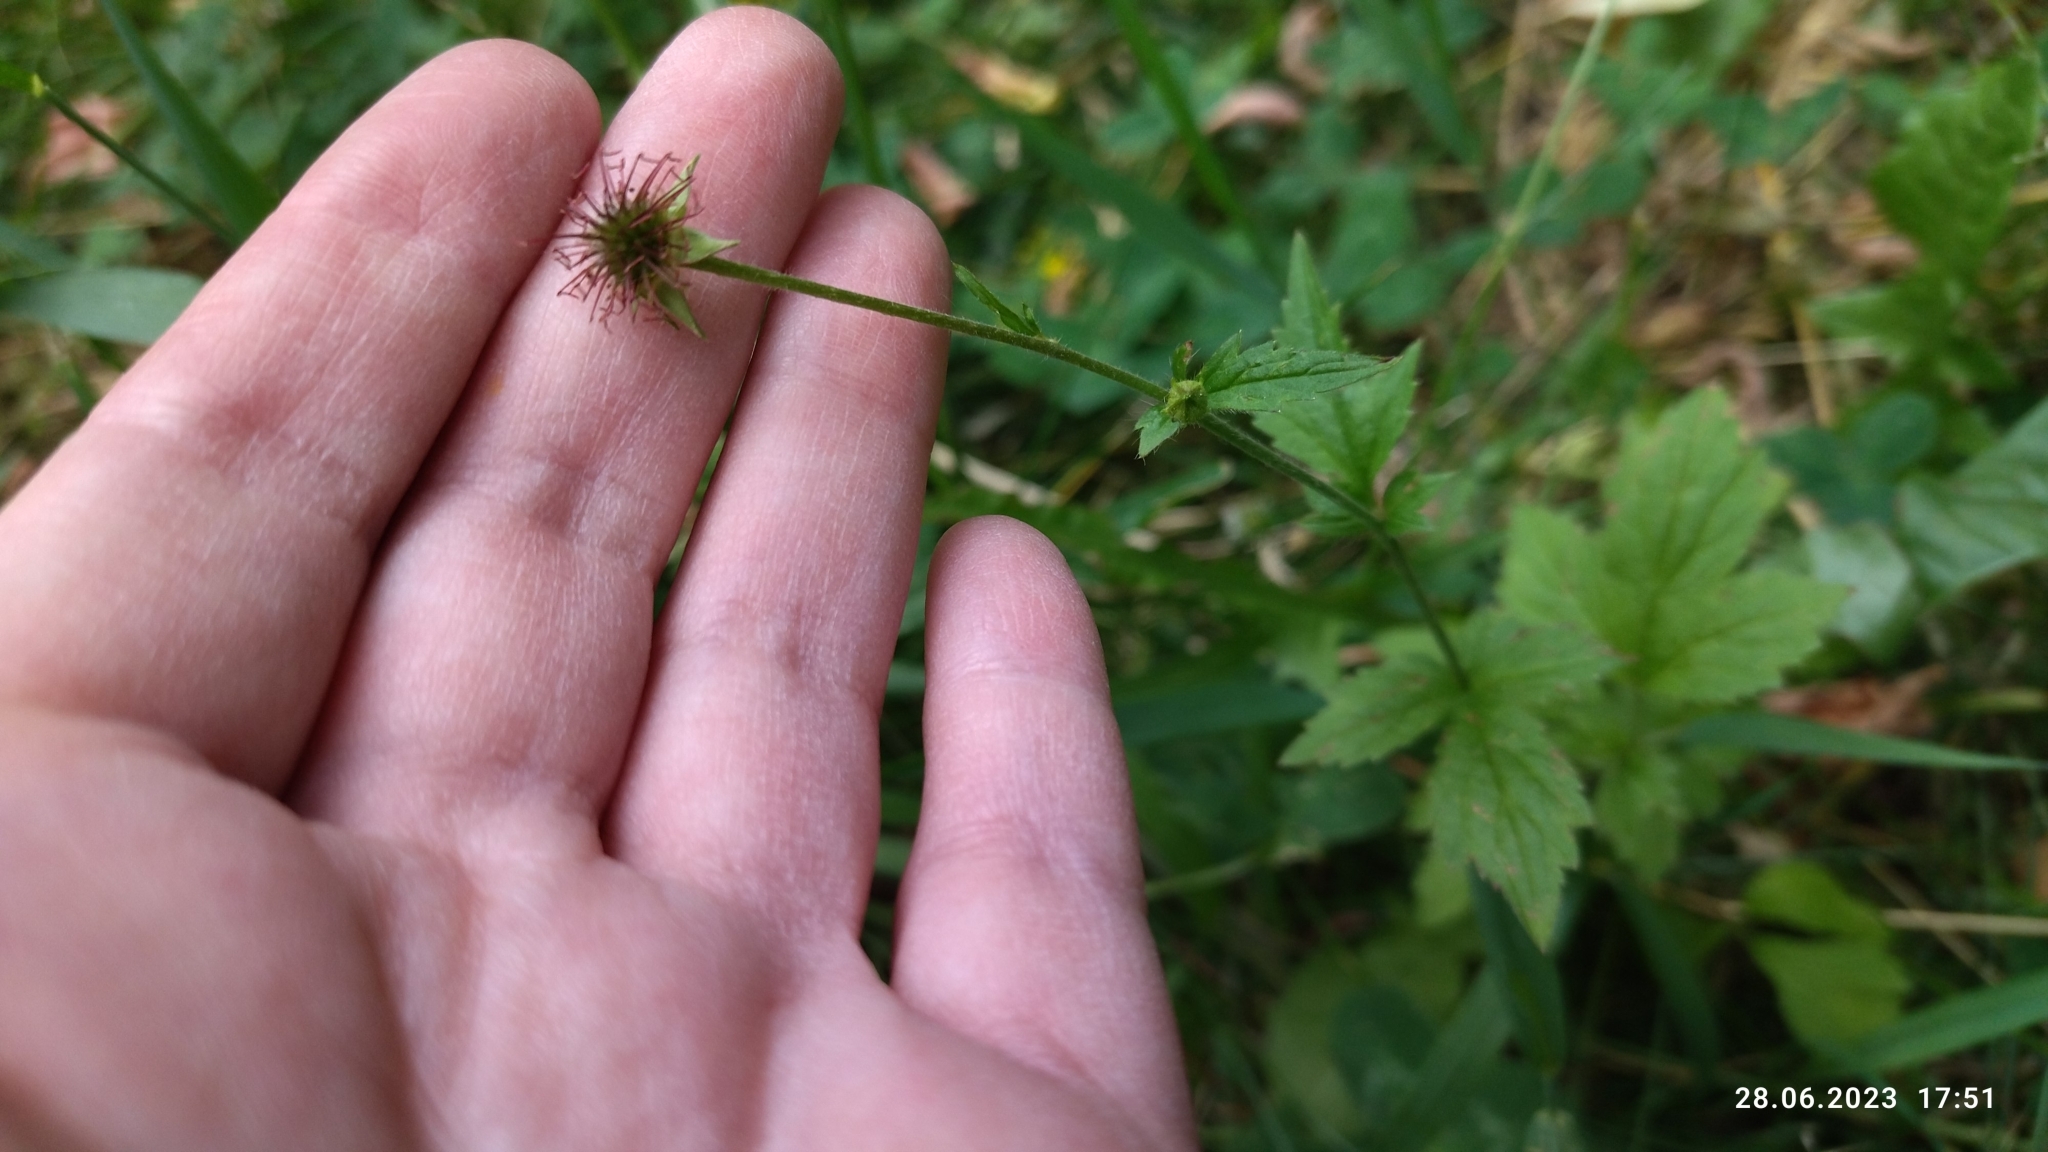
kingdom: Plantae
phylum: Tracheophyta
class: Magnoliopsida
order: Rosales
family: Rosaceae
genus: Geum
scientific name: Geum urbanum
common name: Wood avens
